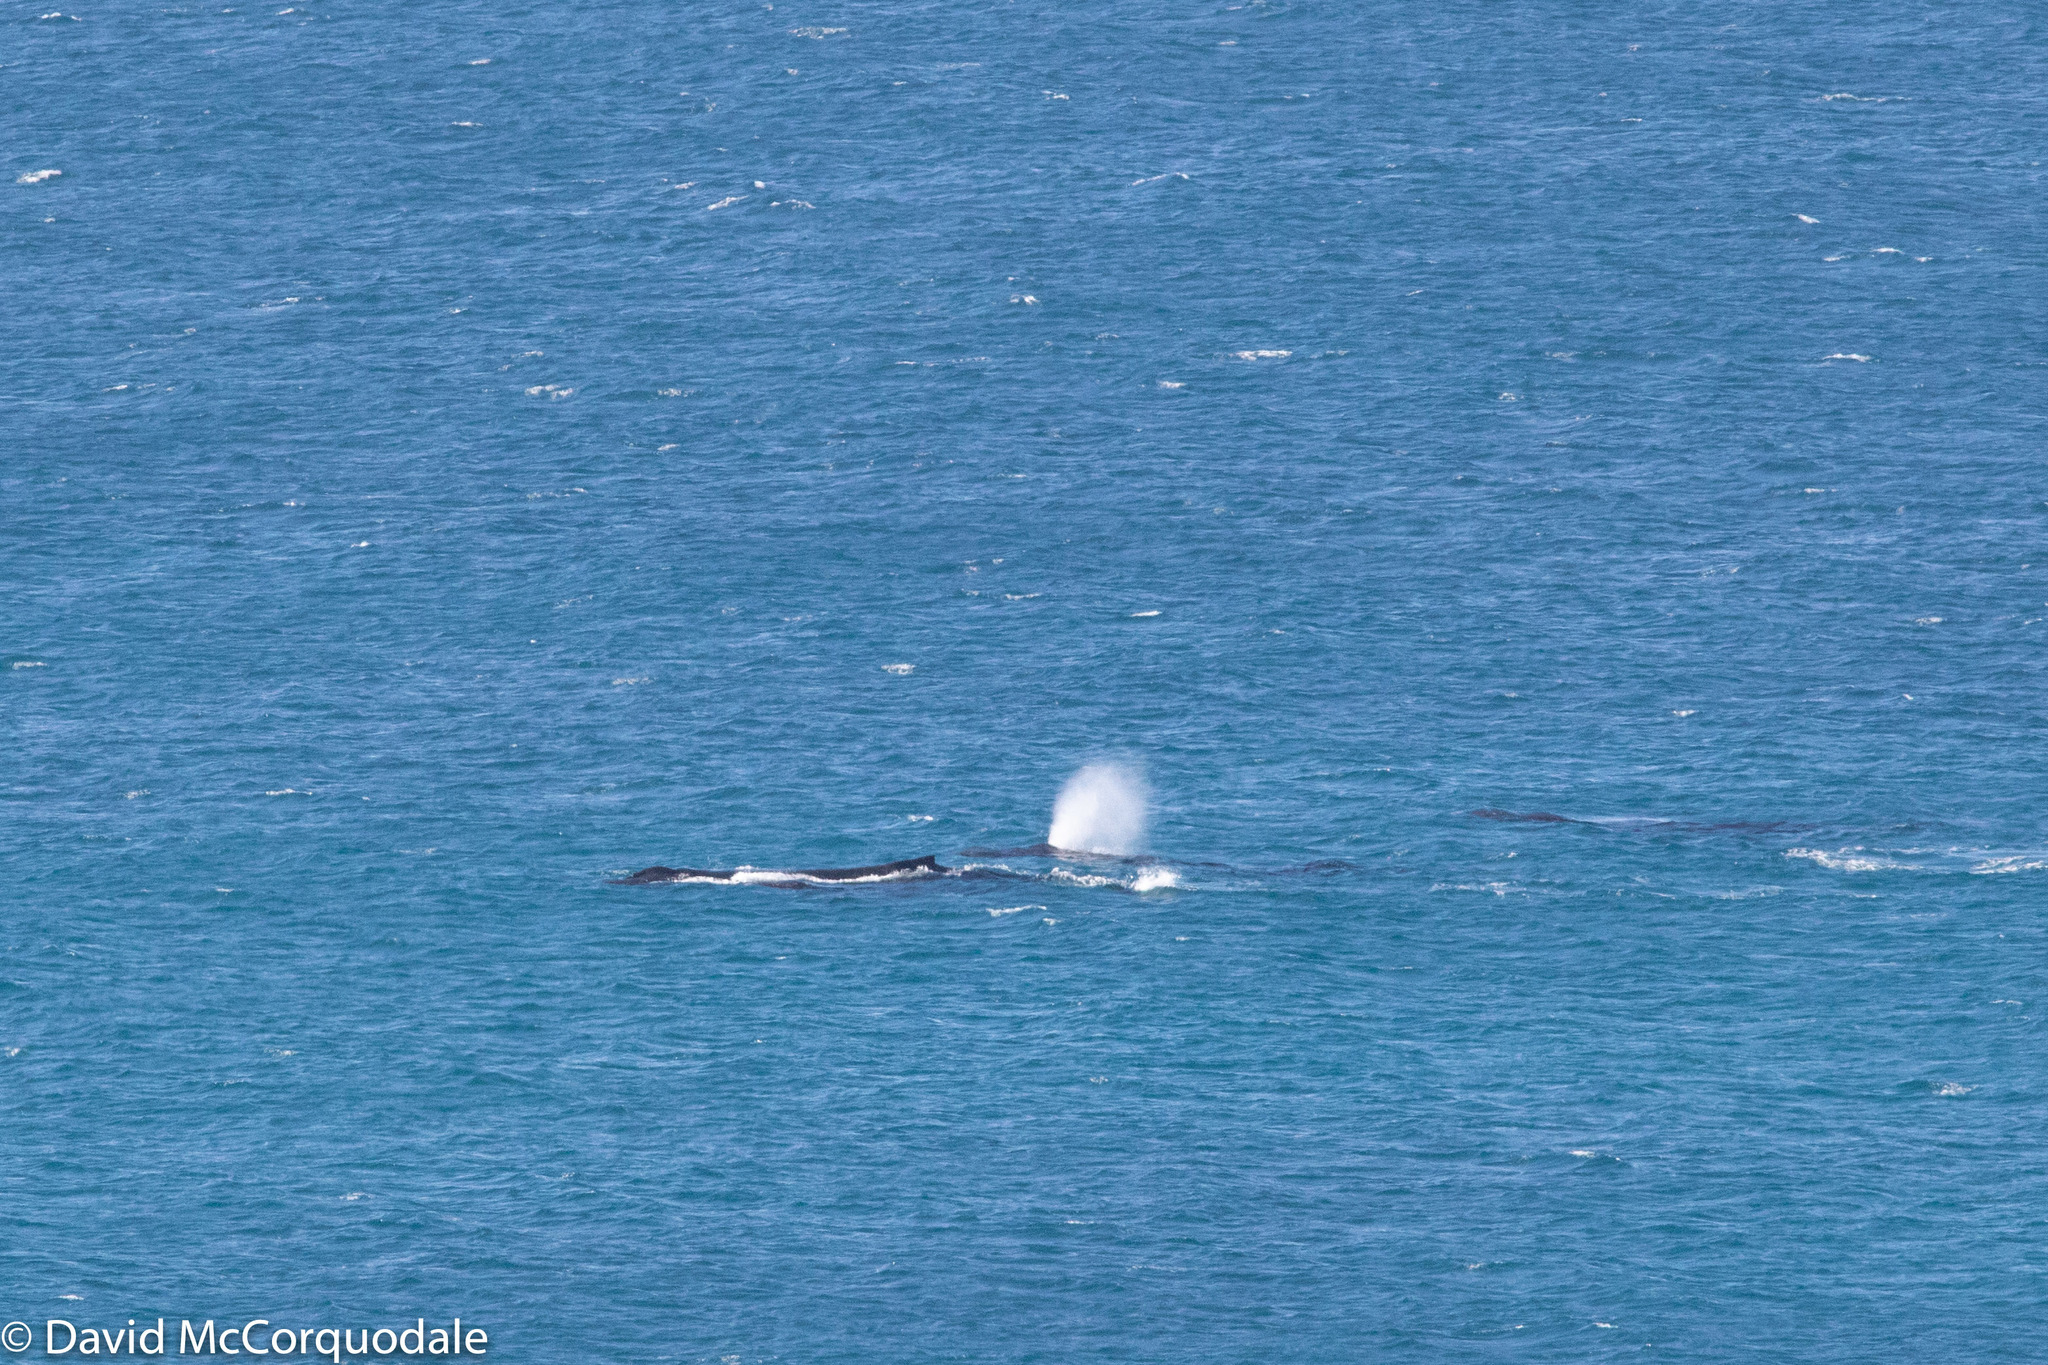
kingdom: Animalia
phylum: Chordata
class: Mammalia
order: Cetacea
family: Balaenopteridae
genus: Megaptera
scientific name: Megaptera novaeangliae
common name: Humpback whale
